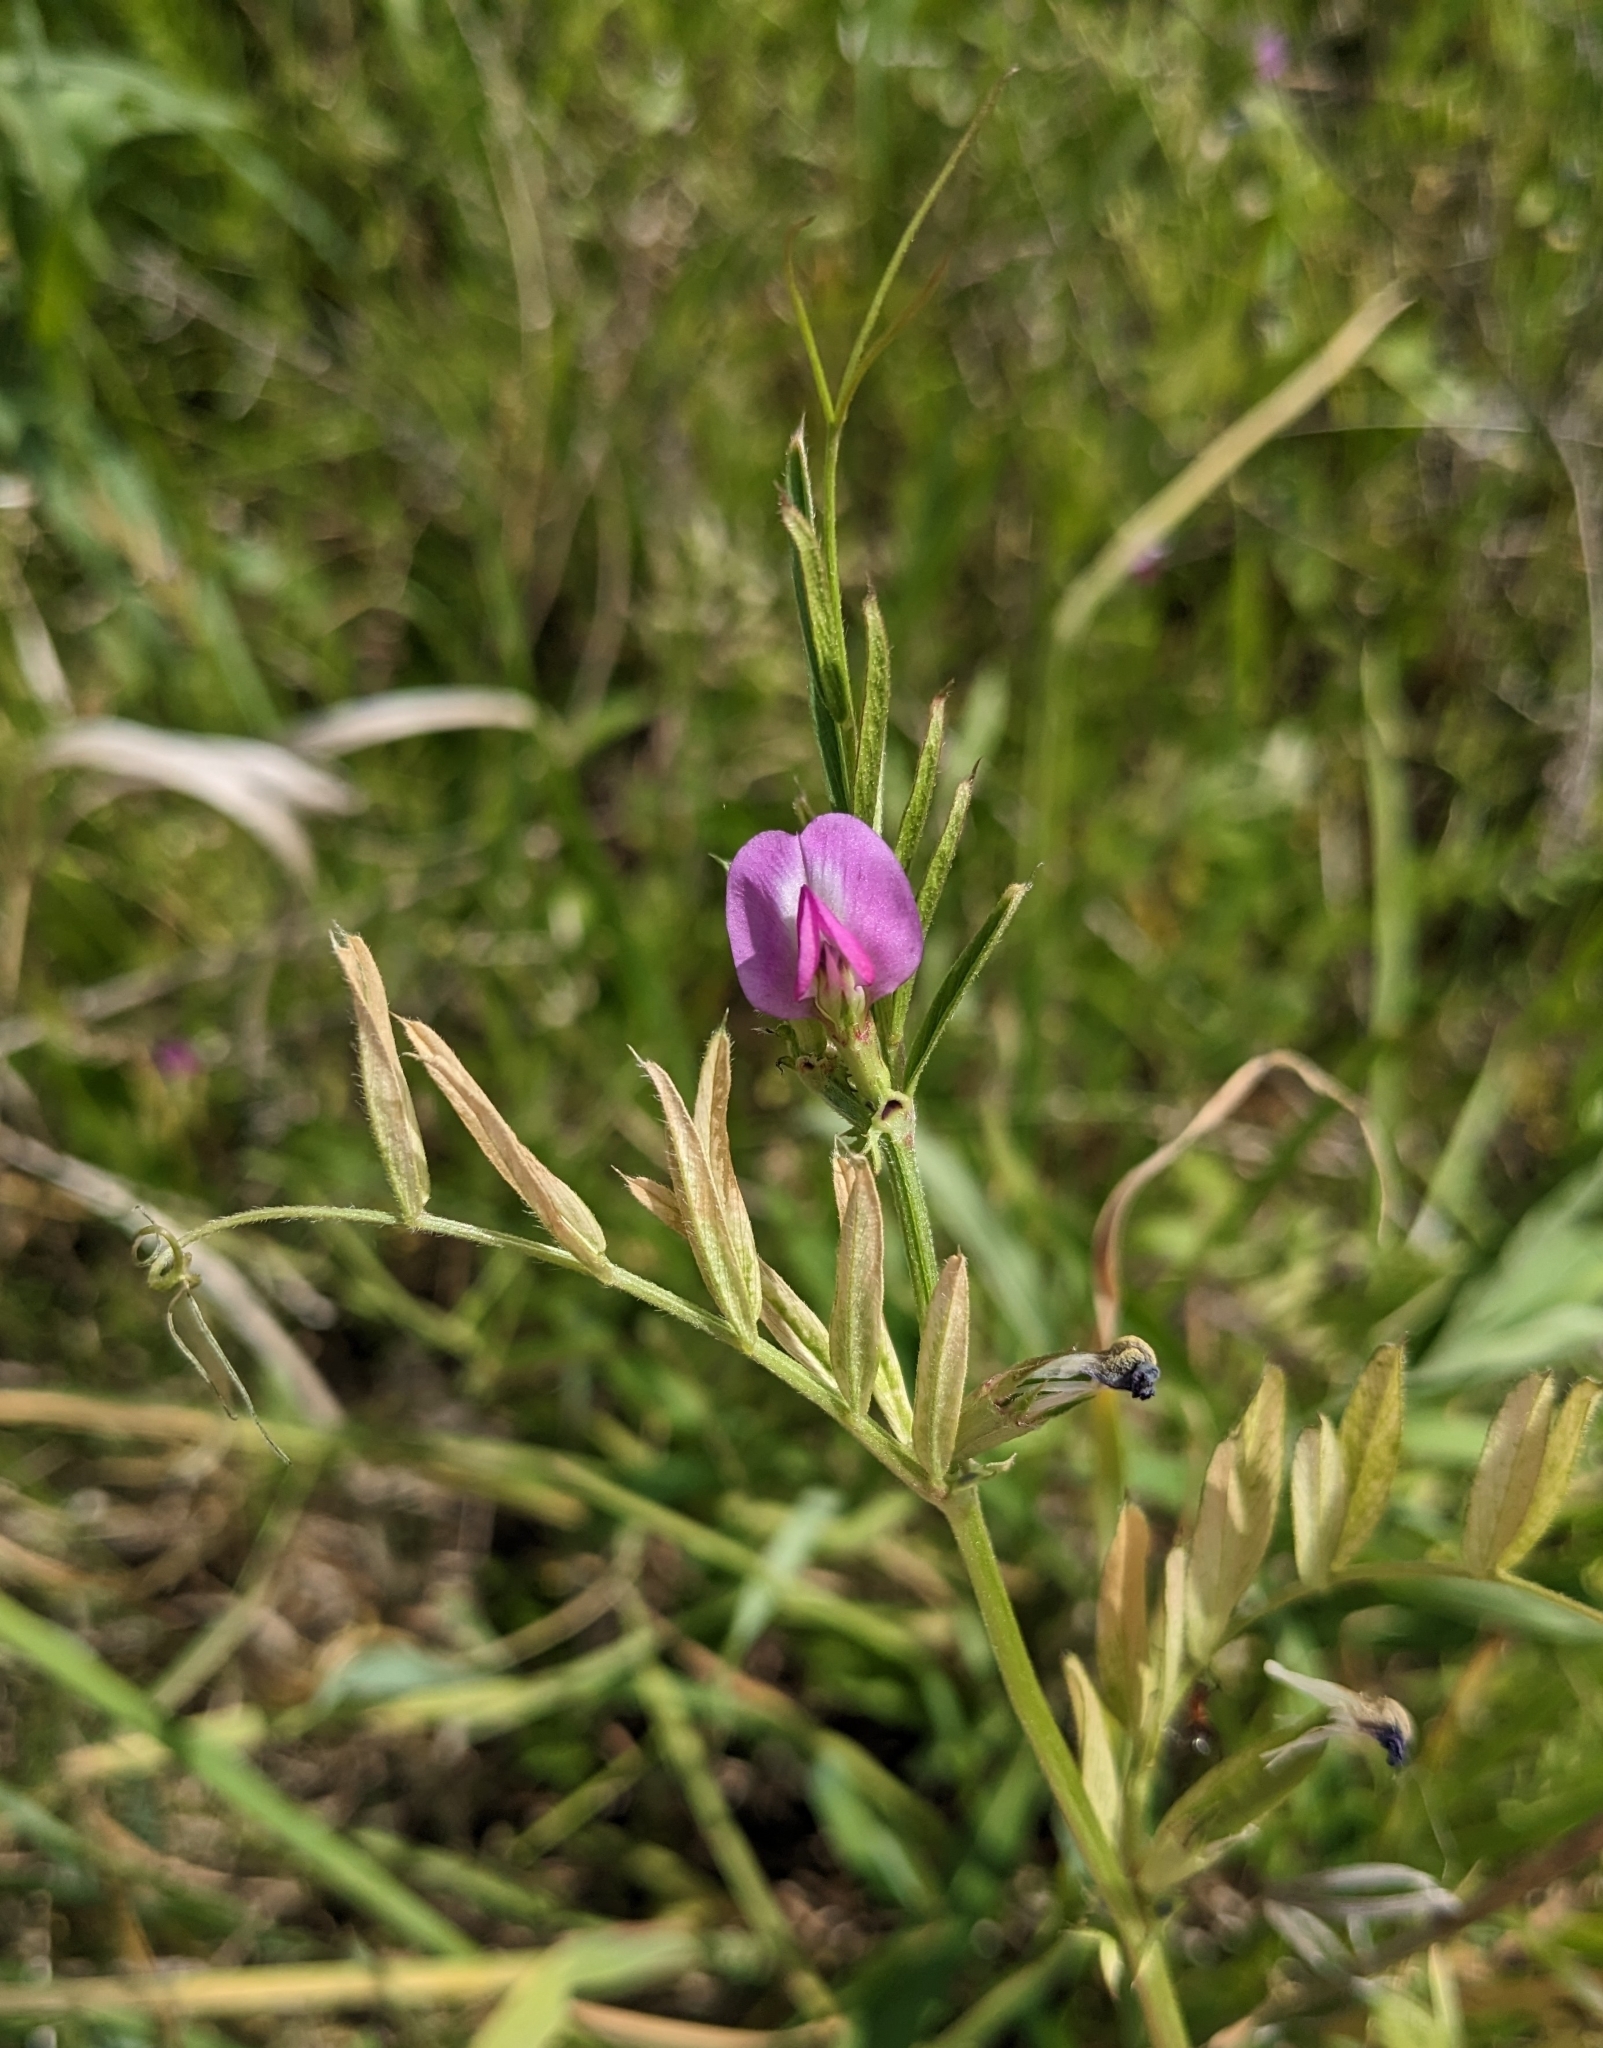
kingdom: Plantae
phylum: Tracheophyta
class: Magnoliopsida
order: Fabales
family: Fabaceae
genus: Vicia
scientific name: Vicia sativa
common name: Garden vetch
